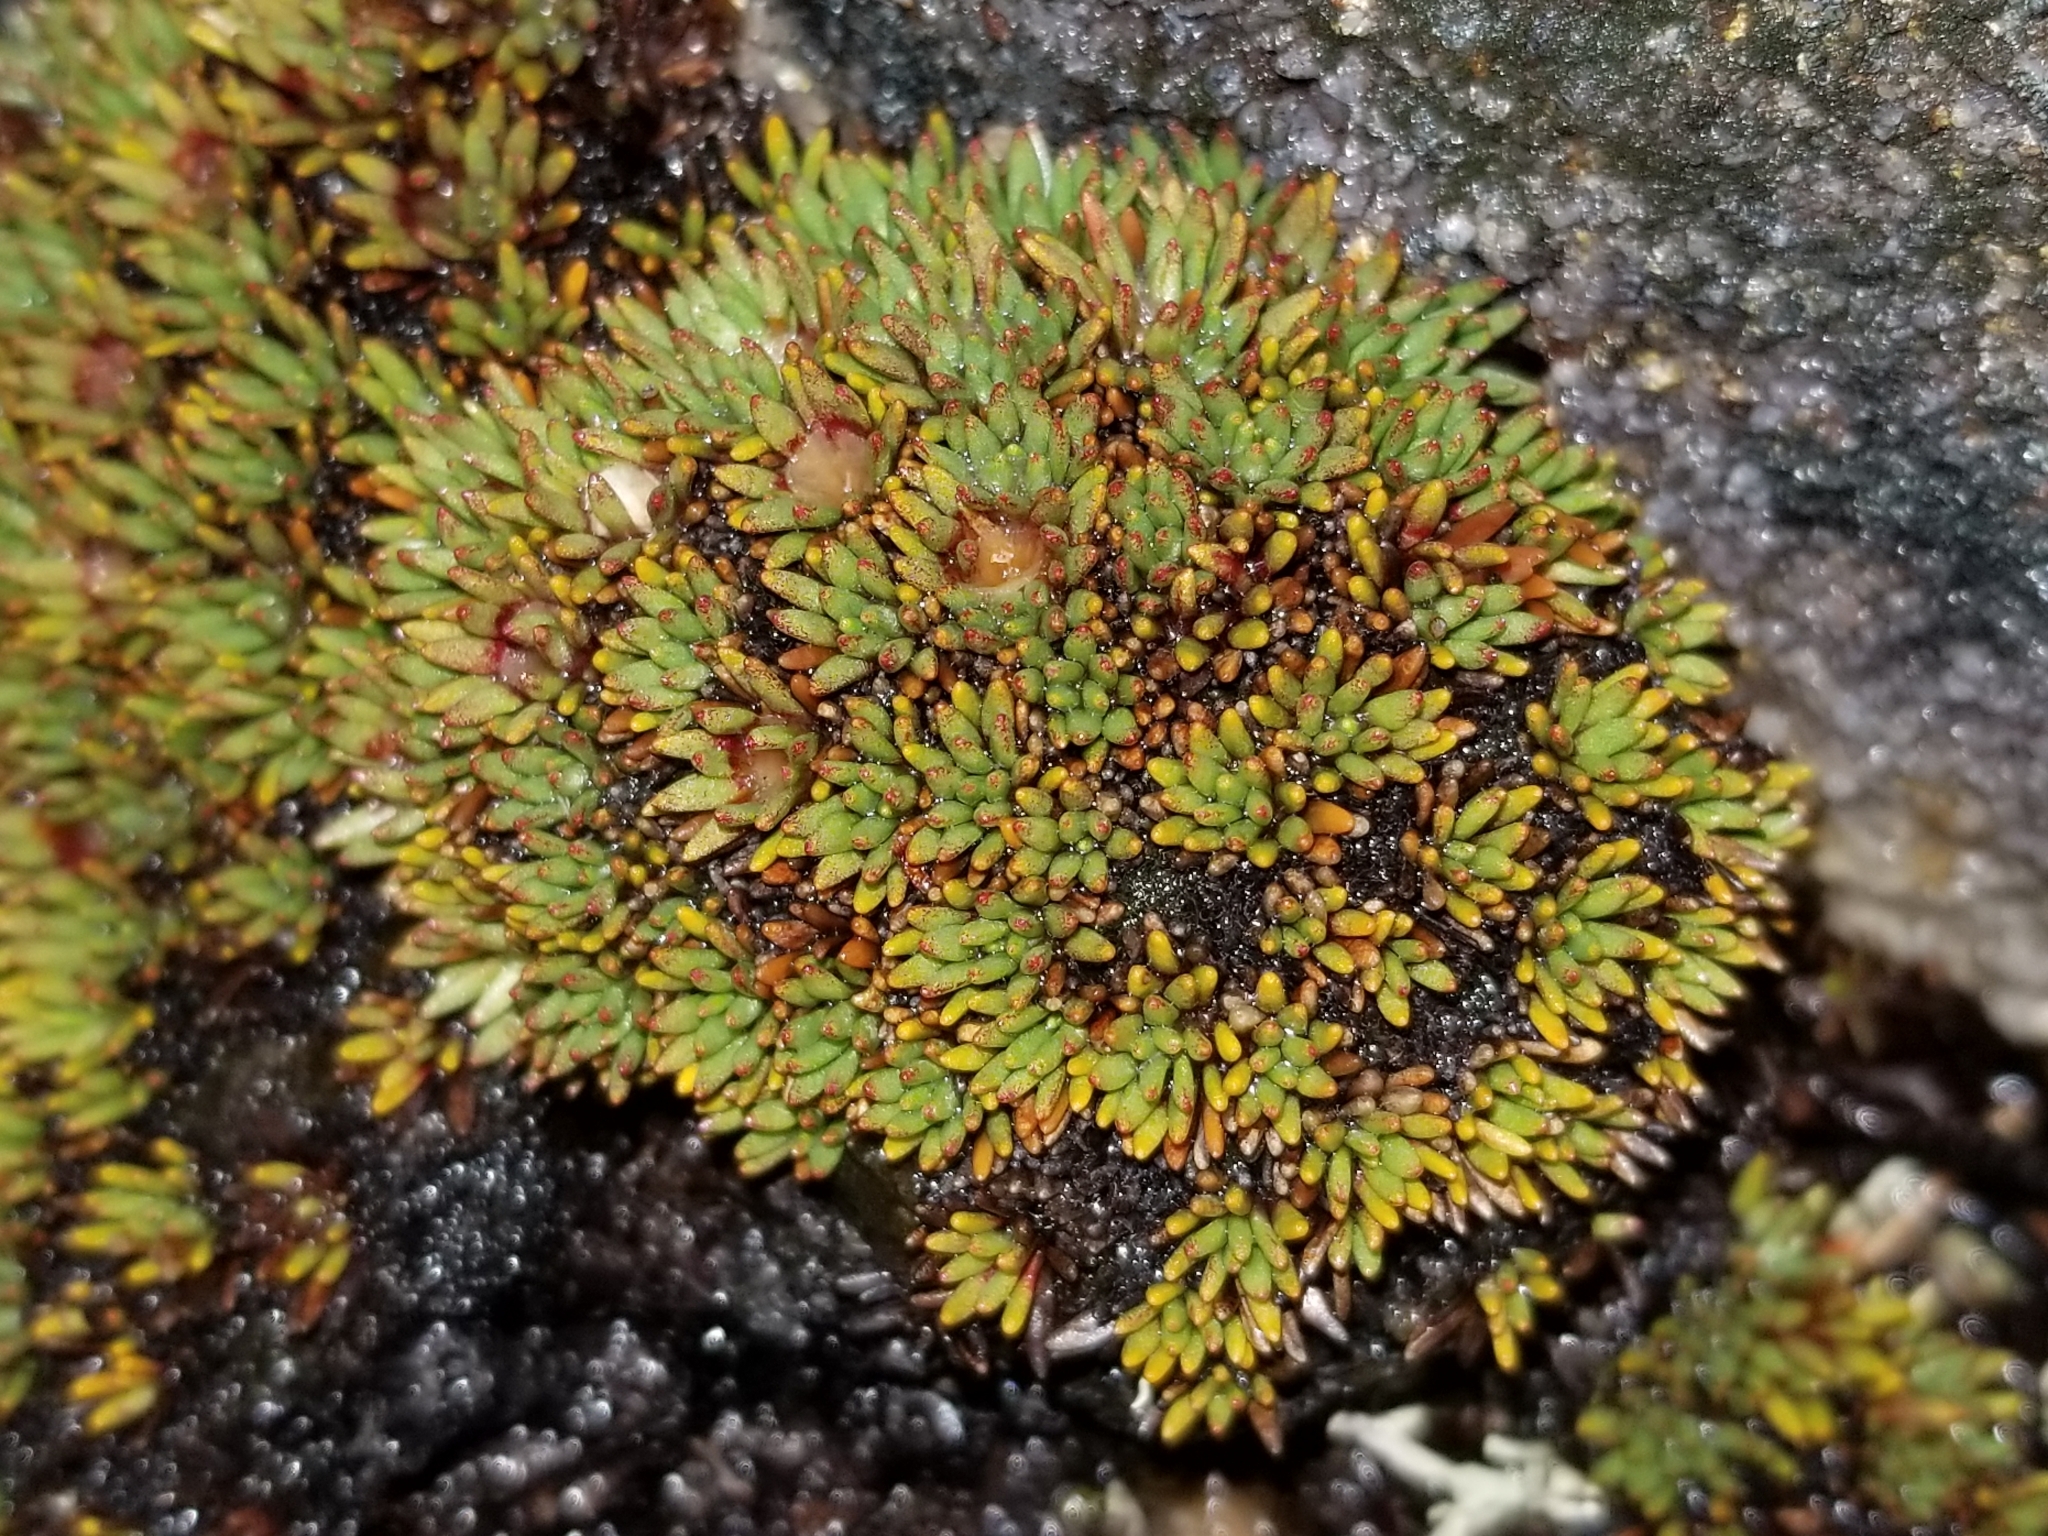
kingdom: Plantae
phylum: Tracheophyta
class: Magnoliopsida
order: Asterales
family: Stylidiaceae
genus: Donatia
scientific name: Donatia novae-zelandiae
